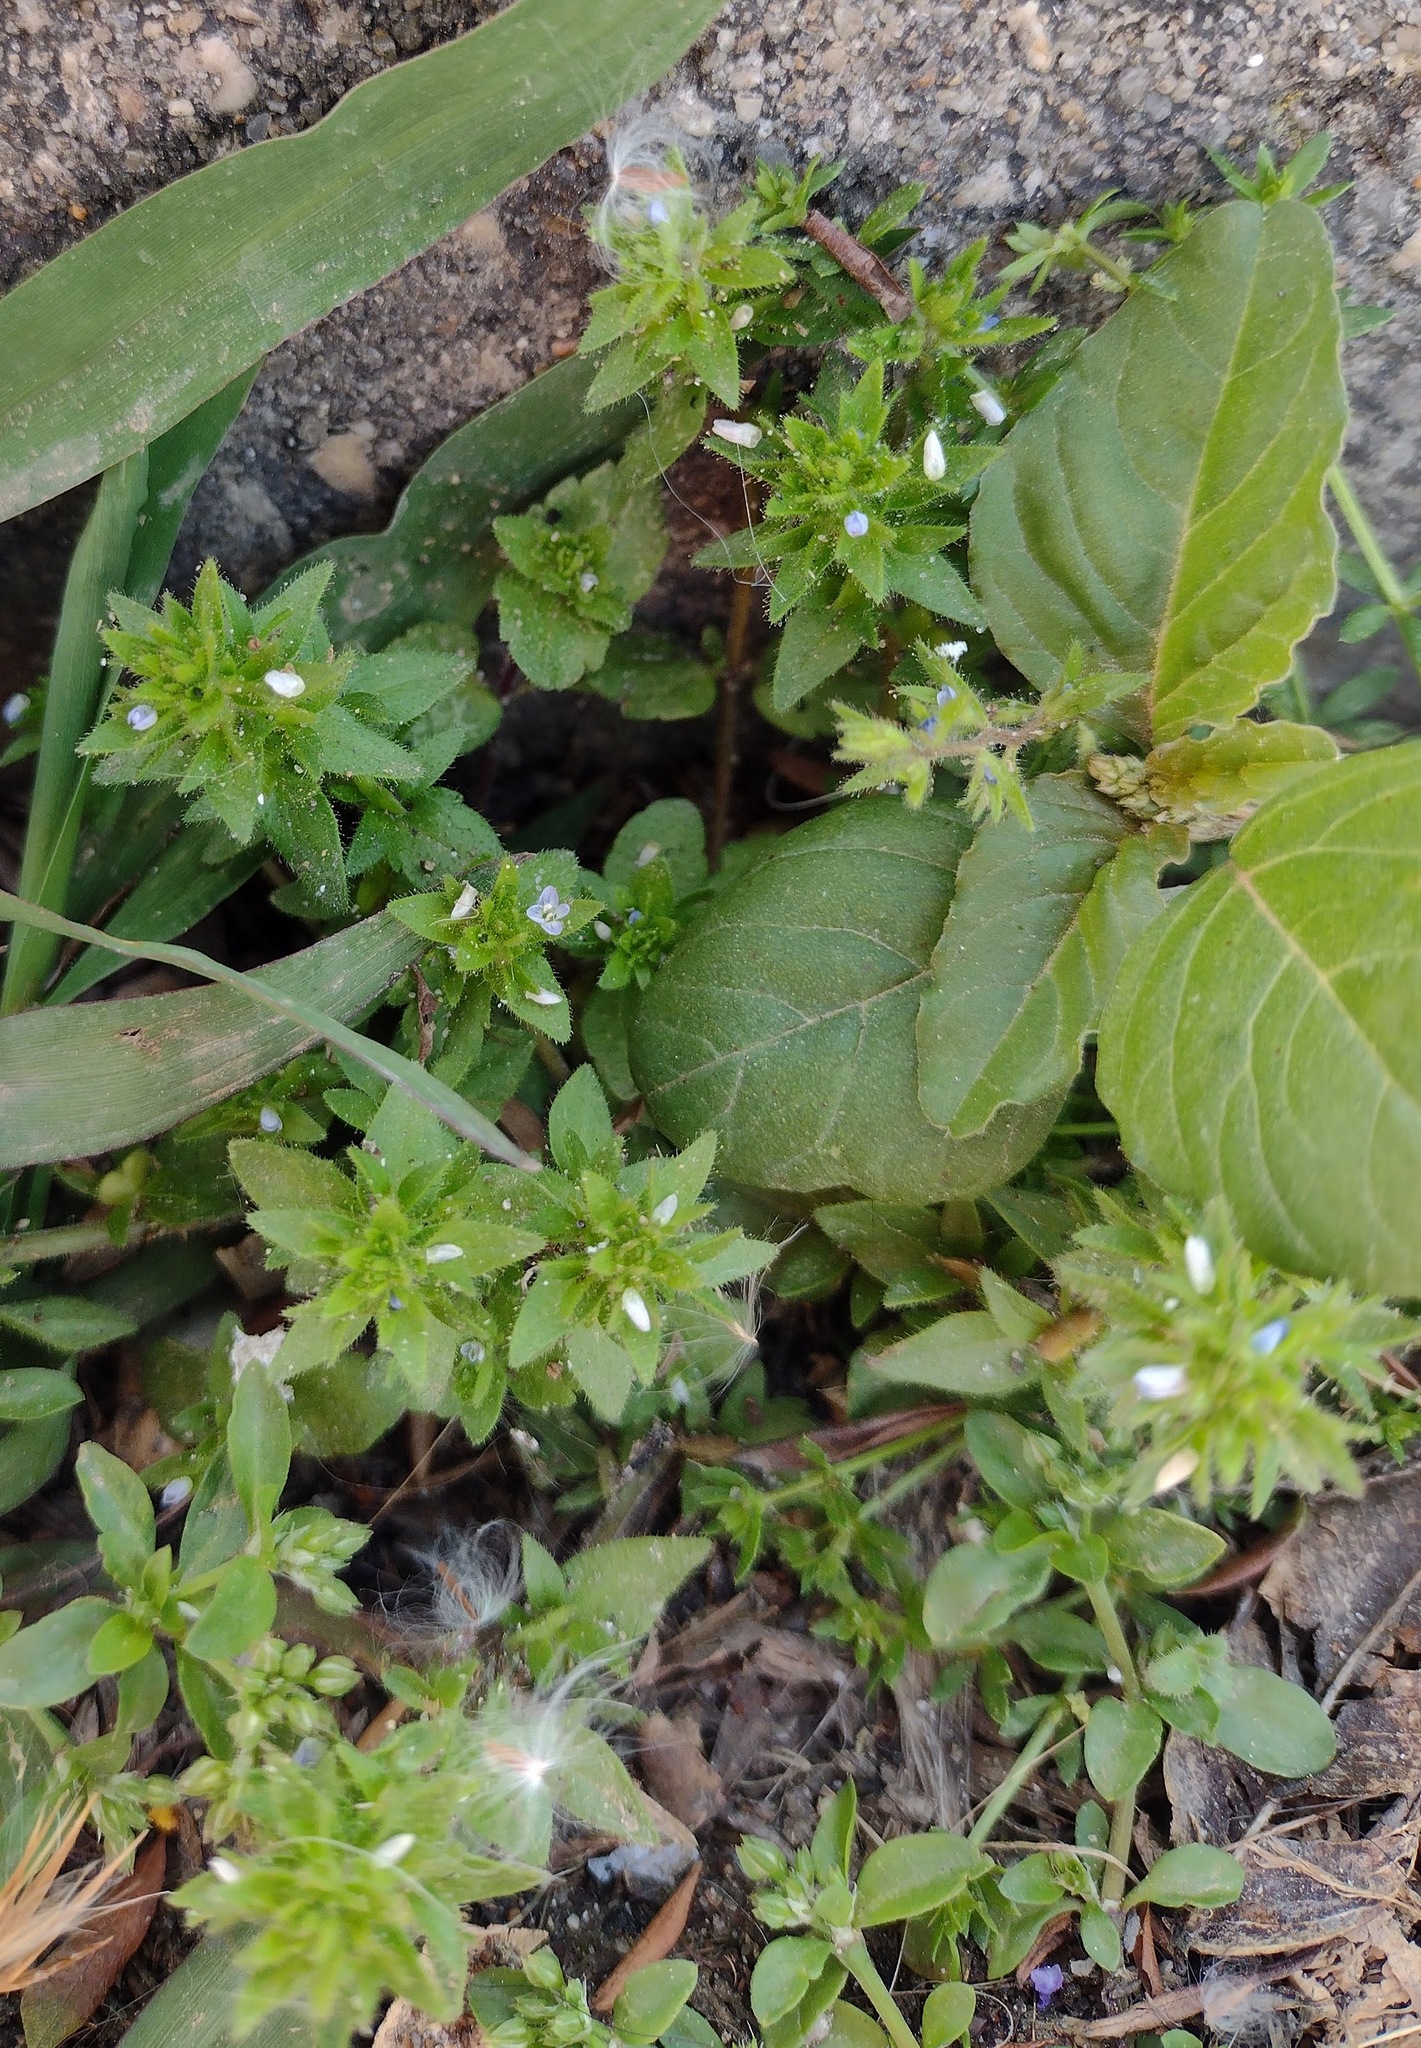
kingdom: Plantae
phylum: Tracheophyta
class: Magnoliopsida
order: Lamiales
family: Plantaginaceae
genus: Veronica
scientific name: Veronica arvensis
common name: Corn speedwell
